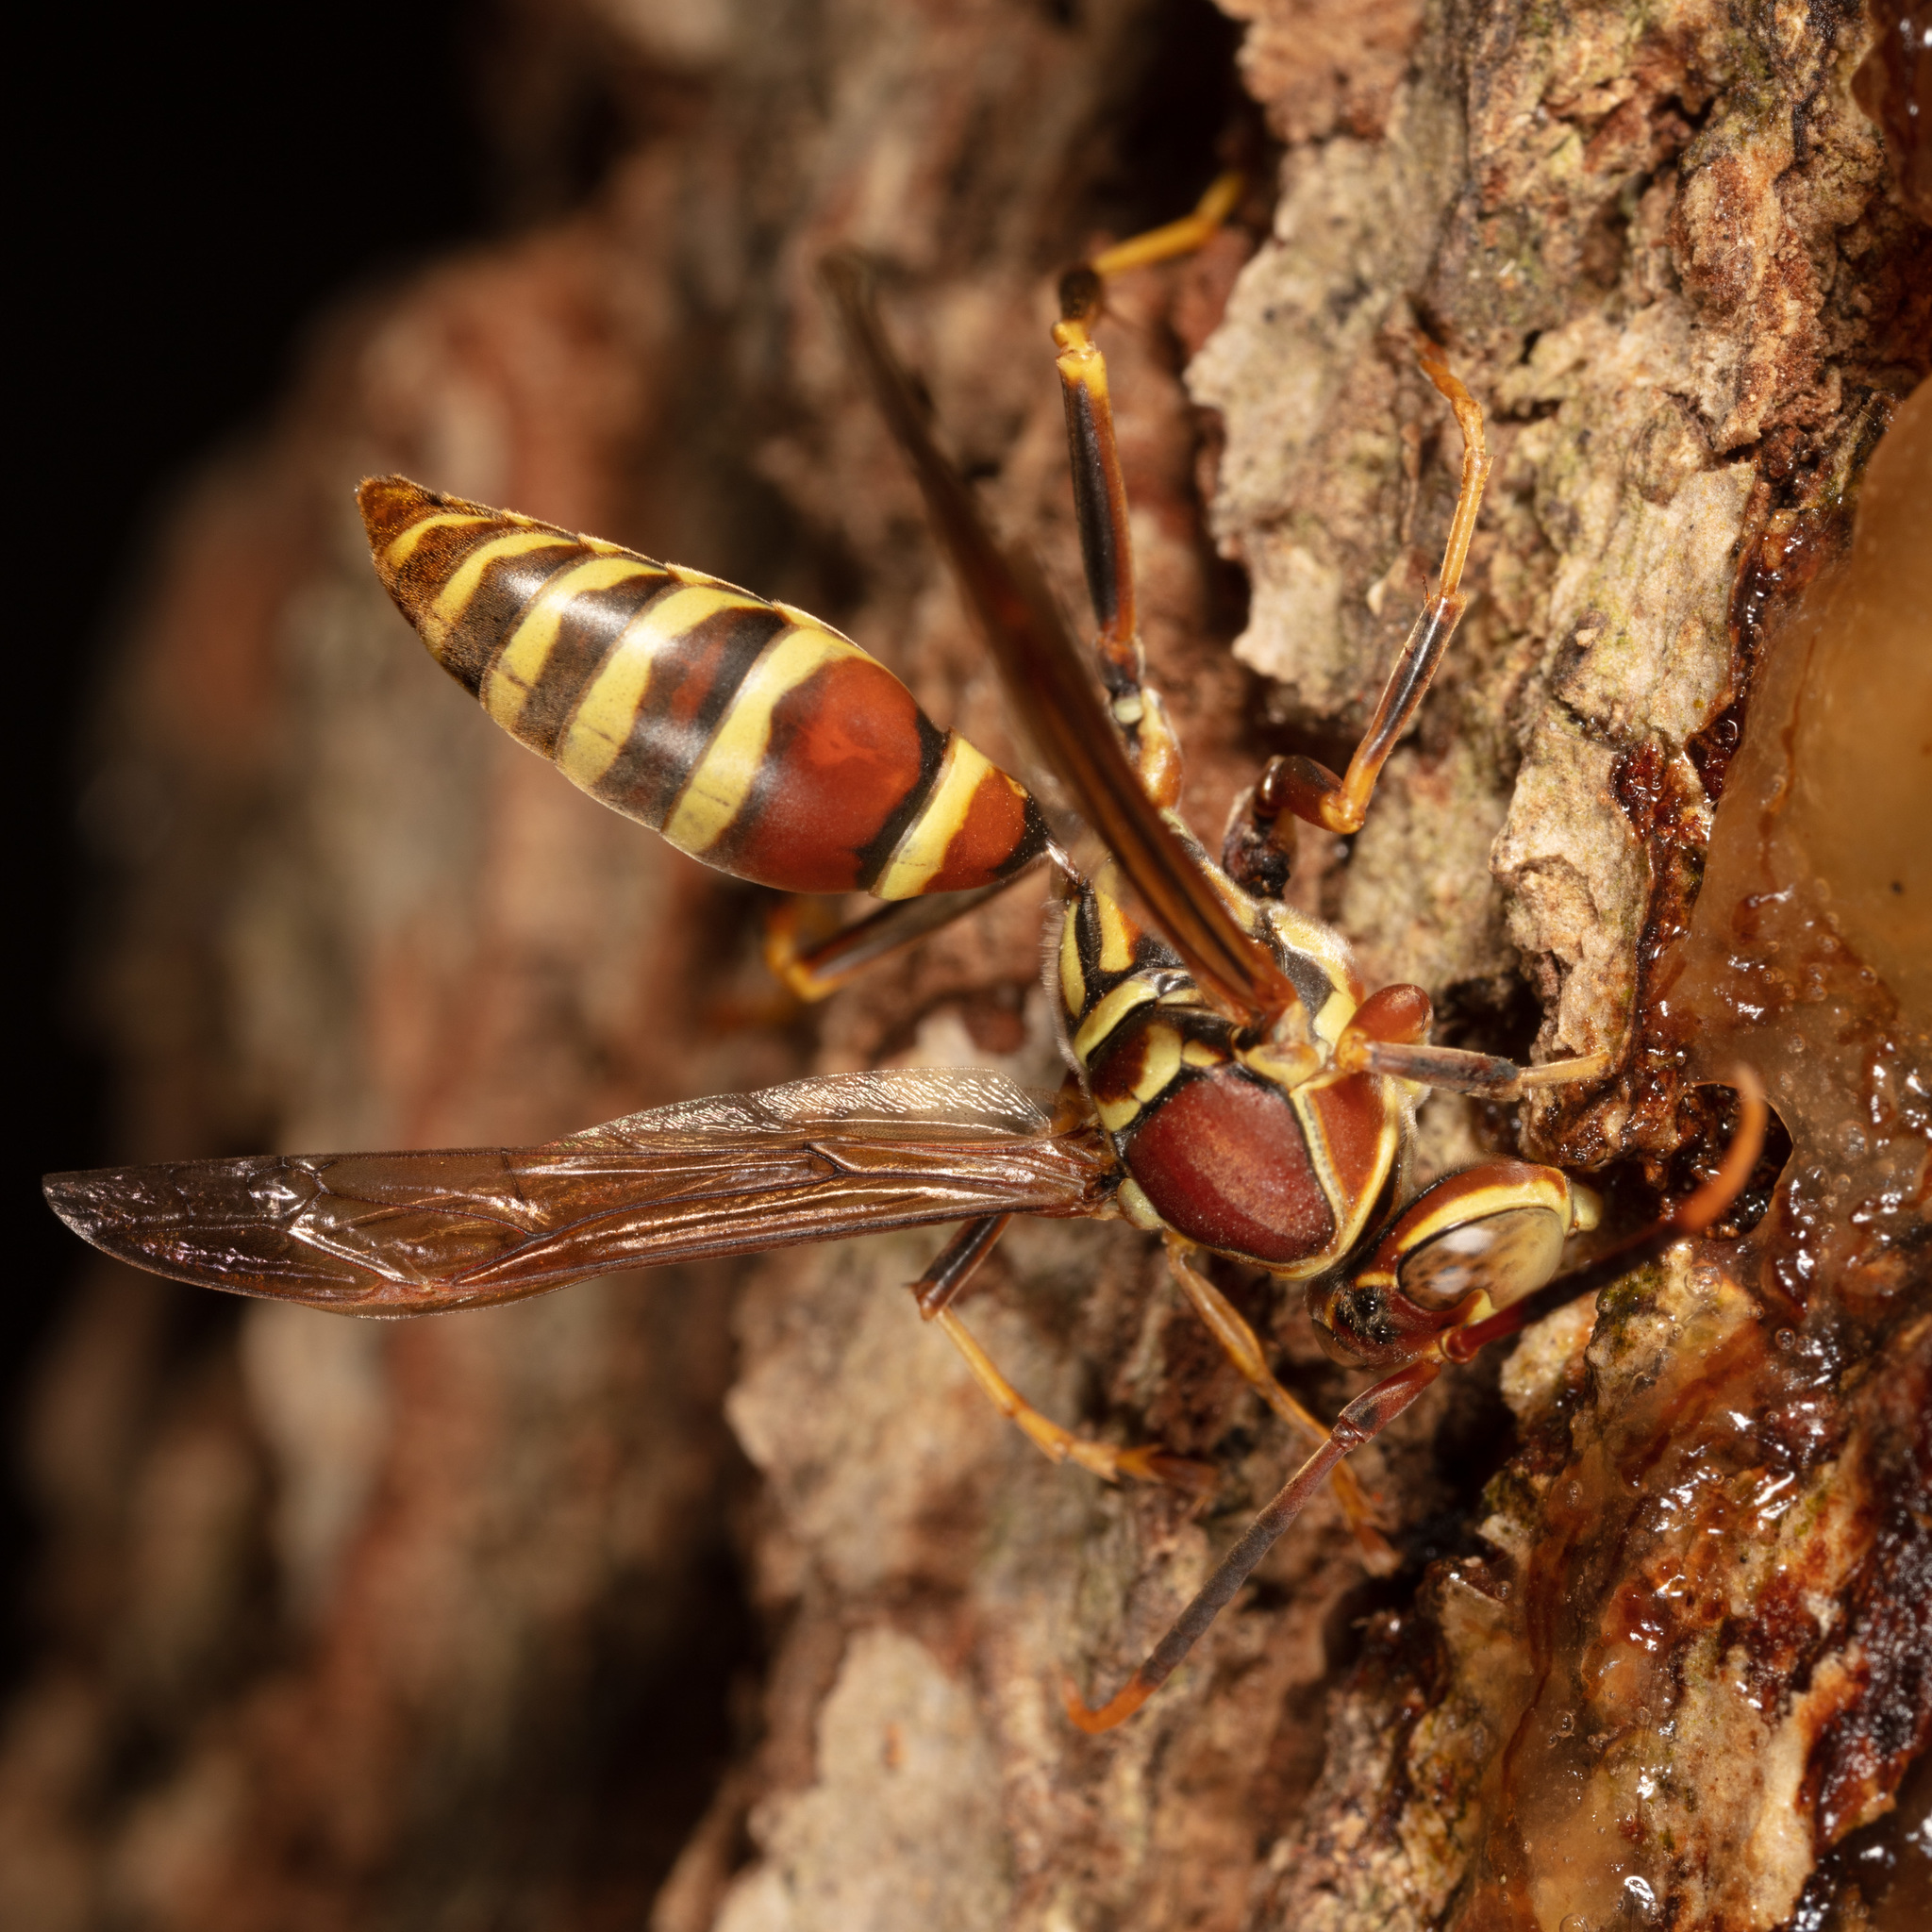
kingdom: Animalia
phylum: Arthropoda
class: Insecta
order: Hymenoptera
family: Eumenidae
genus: Polistes
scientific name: Polistes exclamans
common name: Paper wasp
